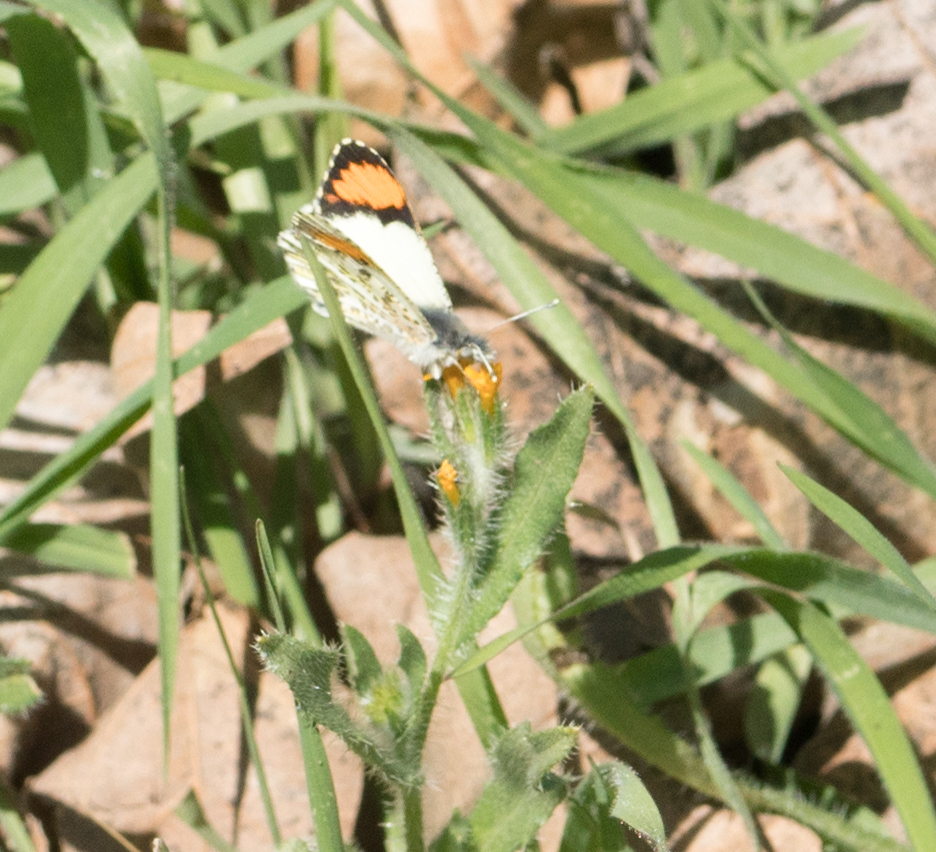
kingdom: Animalia
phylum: Arthropoda
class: Insecta
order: Lepidoptera
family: Pieridae
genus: Anthocharis
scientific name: Anthocharis sara
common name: Sara's orangetip
